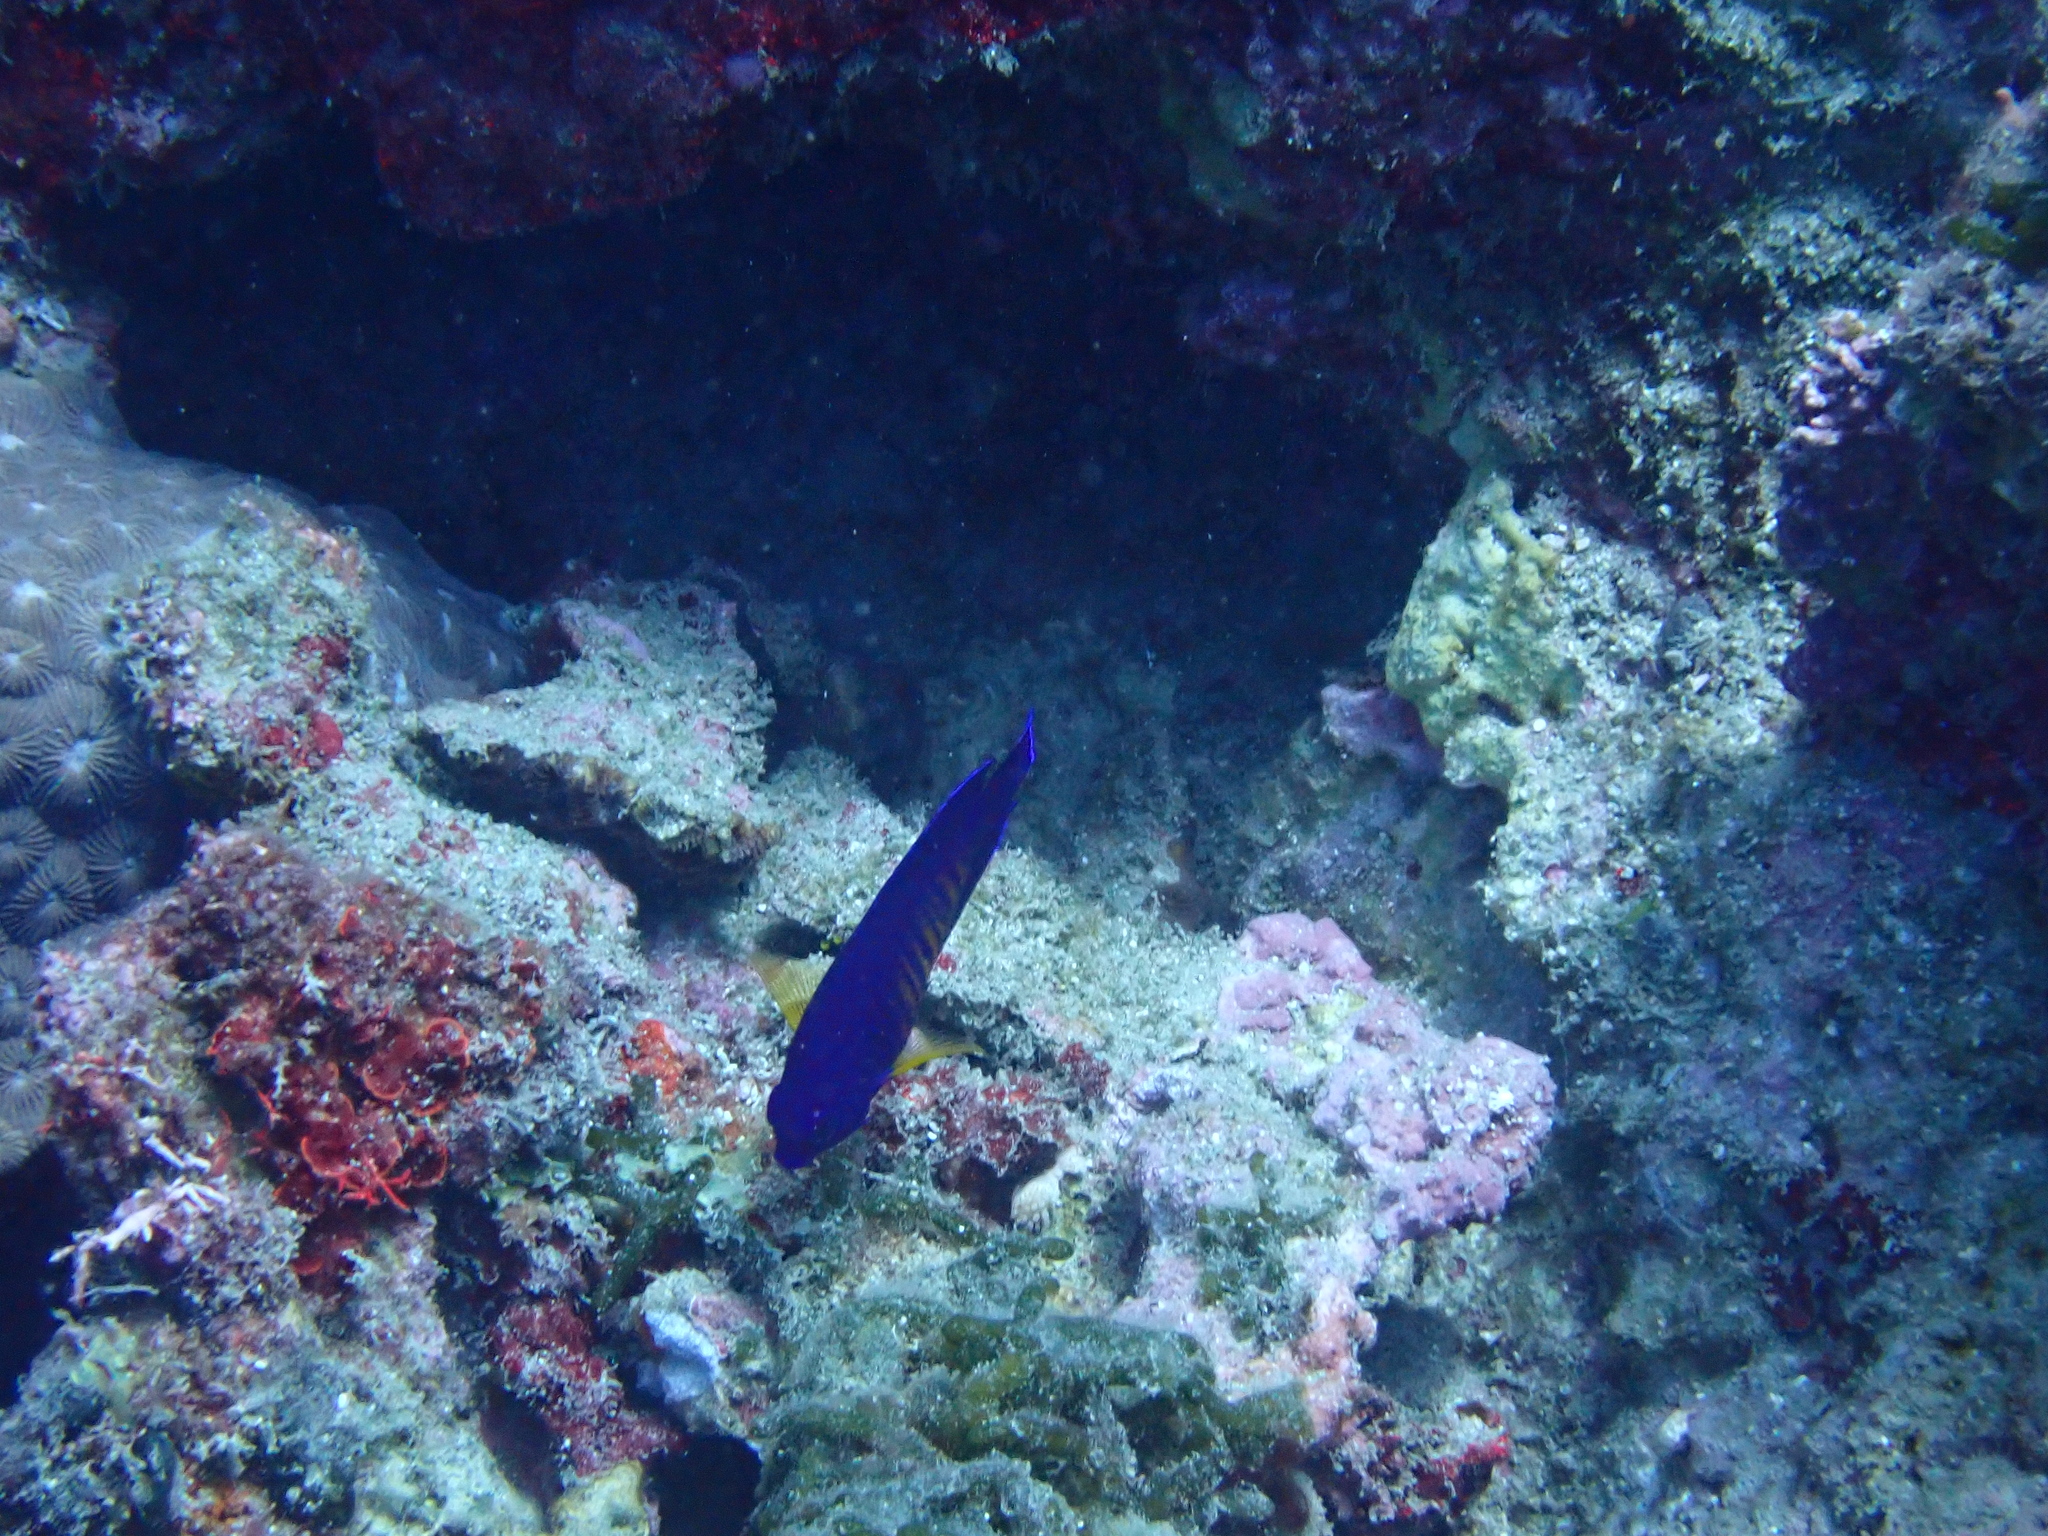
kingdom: Animalia
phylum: Chordata
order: Perciformes
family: Pomacanthidae
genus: Centropyge
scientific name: Centropyge bispinosa
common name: Coral beauty
